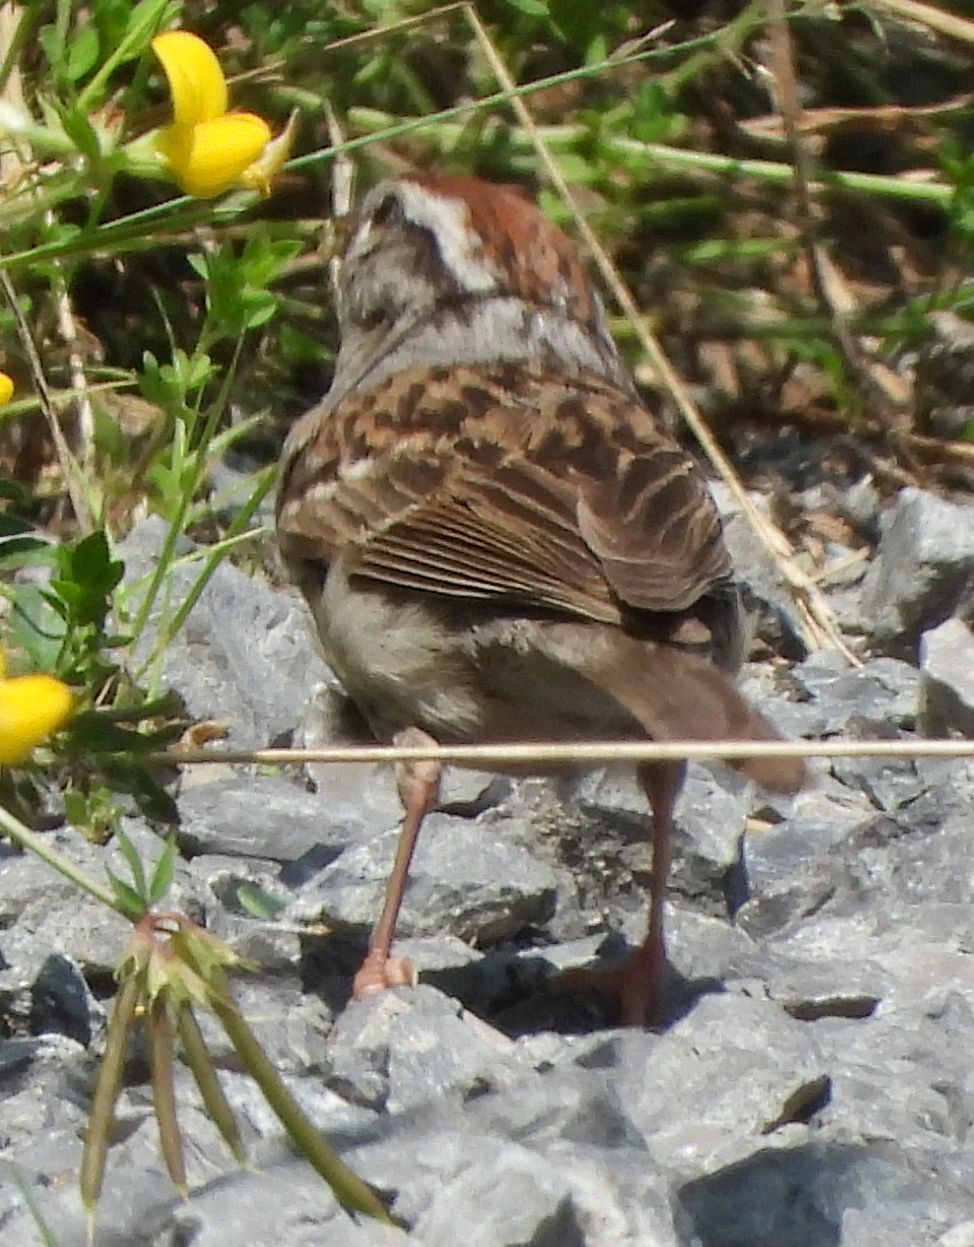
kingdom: Animalia
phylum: Chordata
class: Aves
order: Passeriformes
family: Passerellidae
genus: Spizella
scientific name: Spizella passerina
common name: Chipping sparrow
